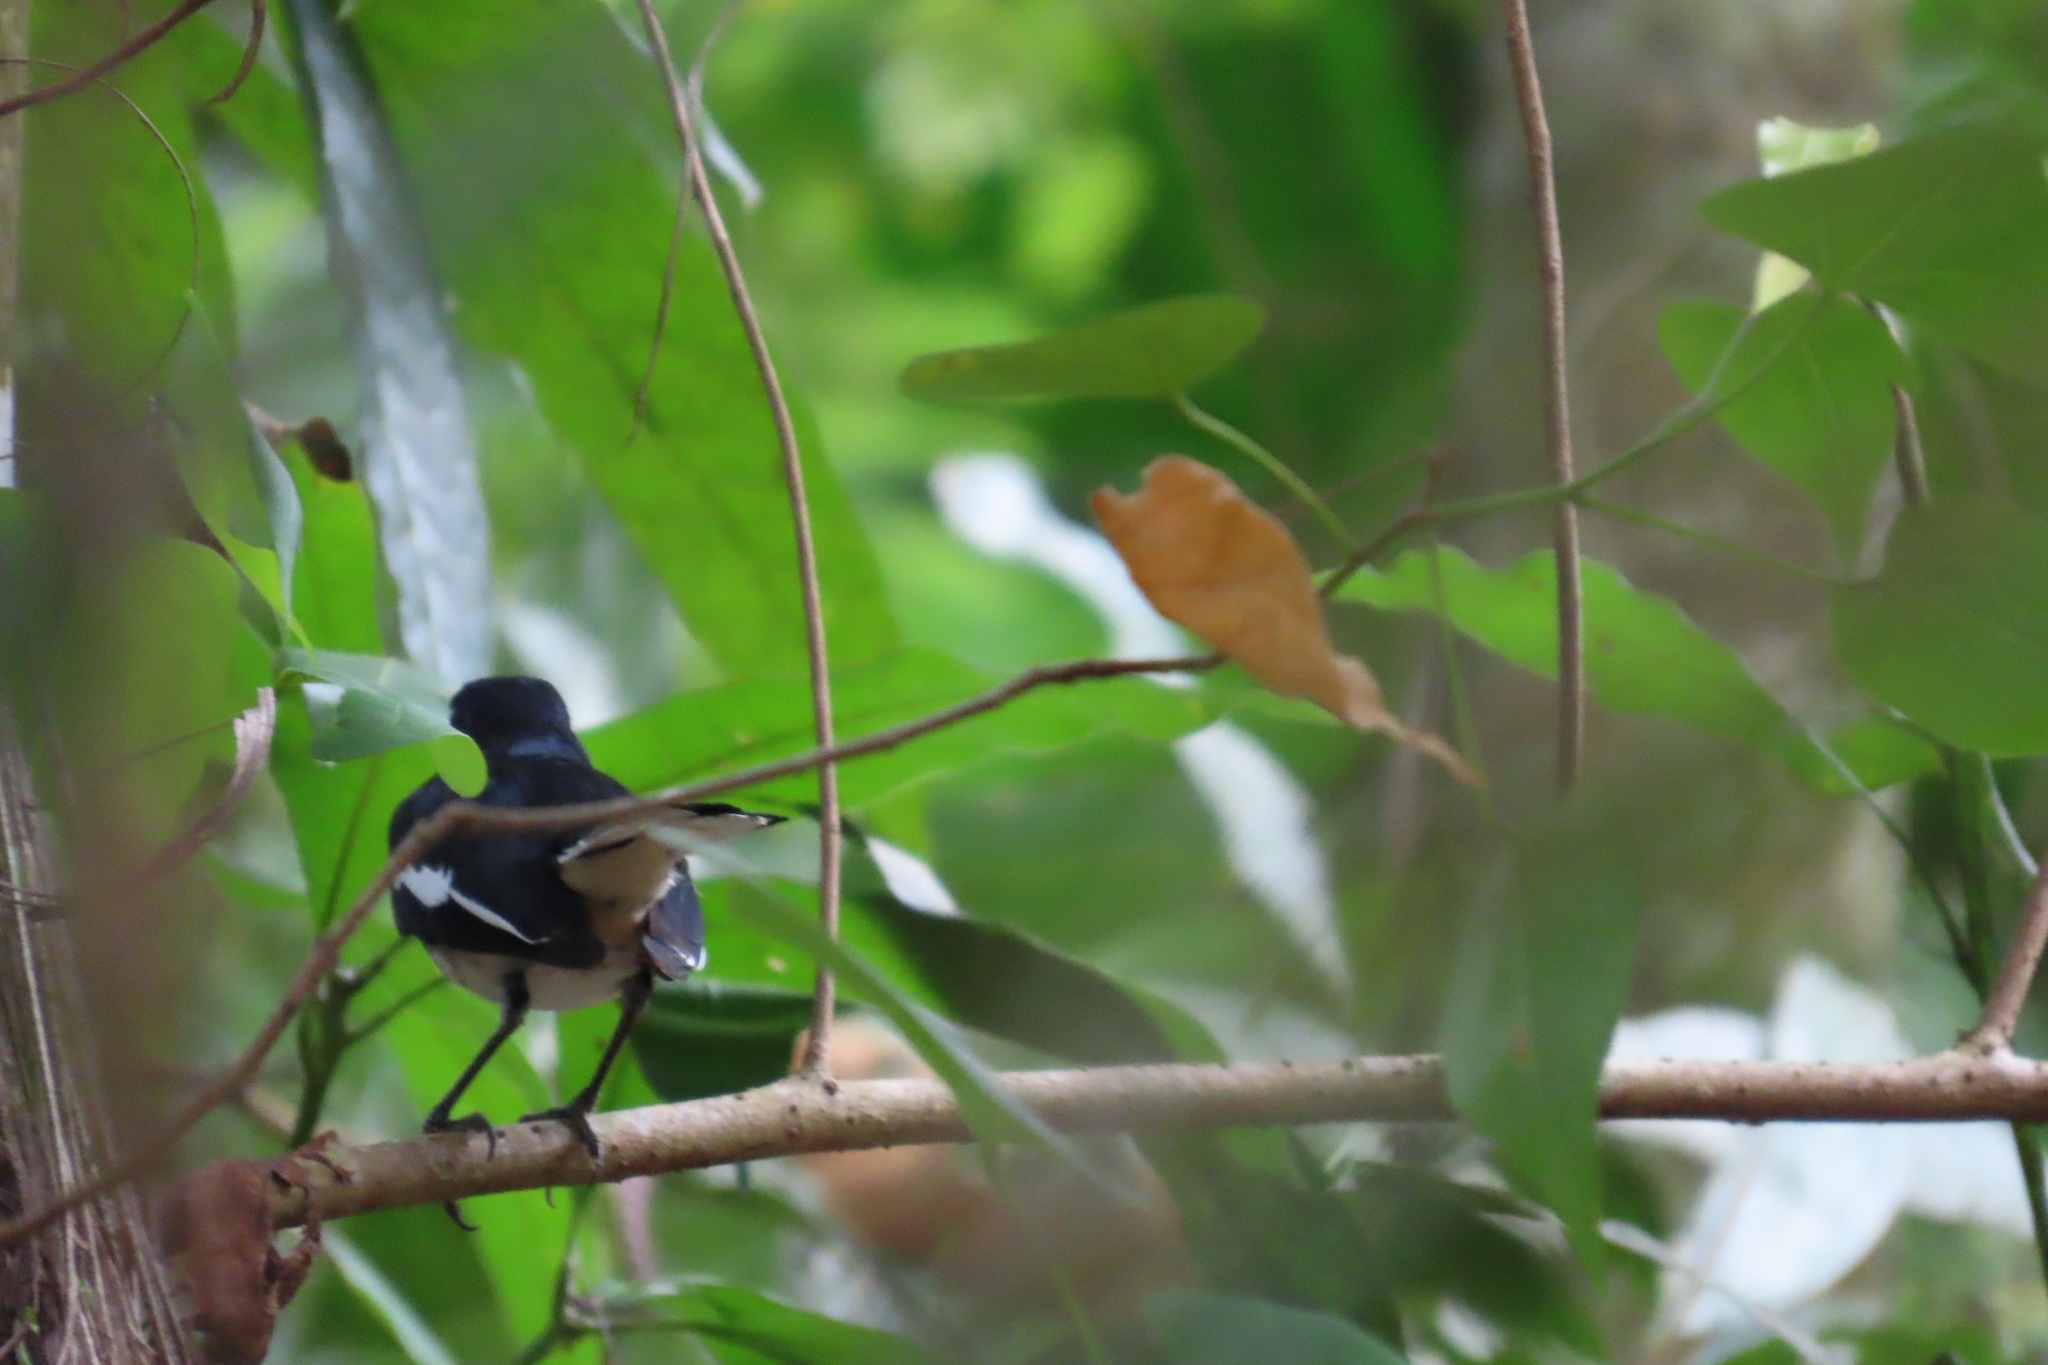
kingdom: Animalia
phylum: Chordata
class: Aves
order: Passeriformes
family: Muscicapidae
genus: Copsychus
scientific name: Copsychus saularis
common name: Oriental magpie-robin
